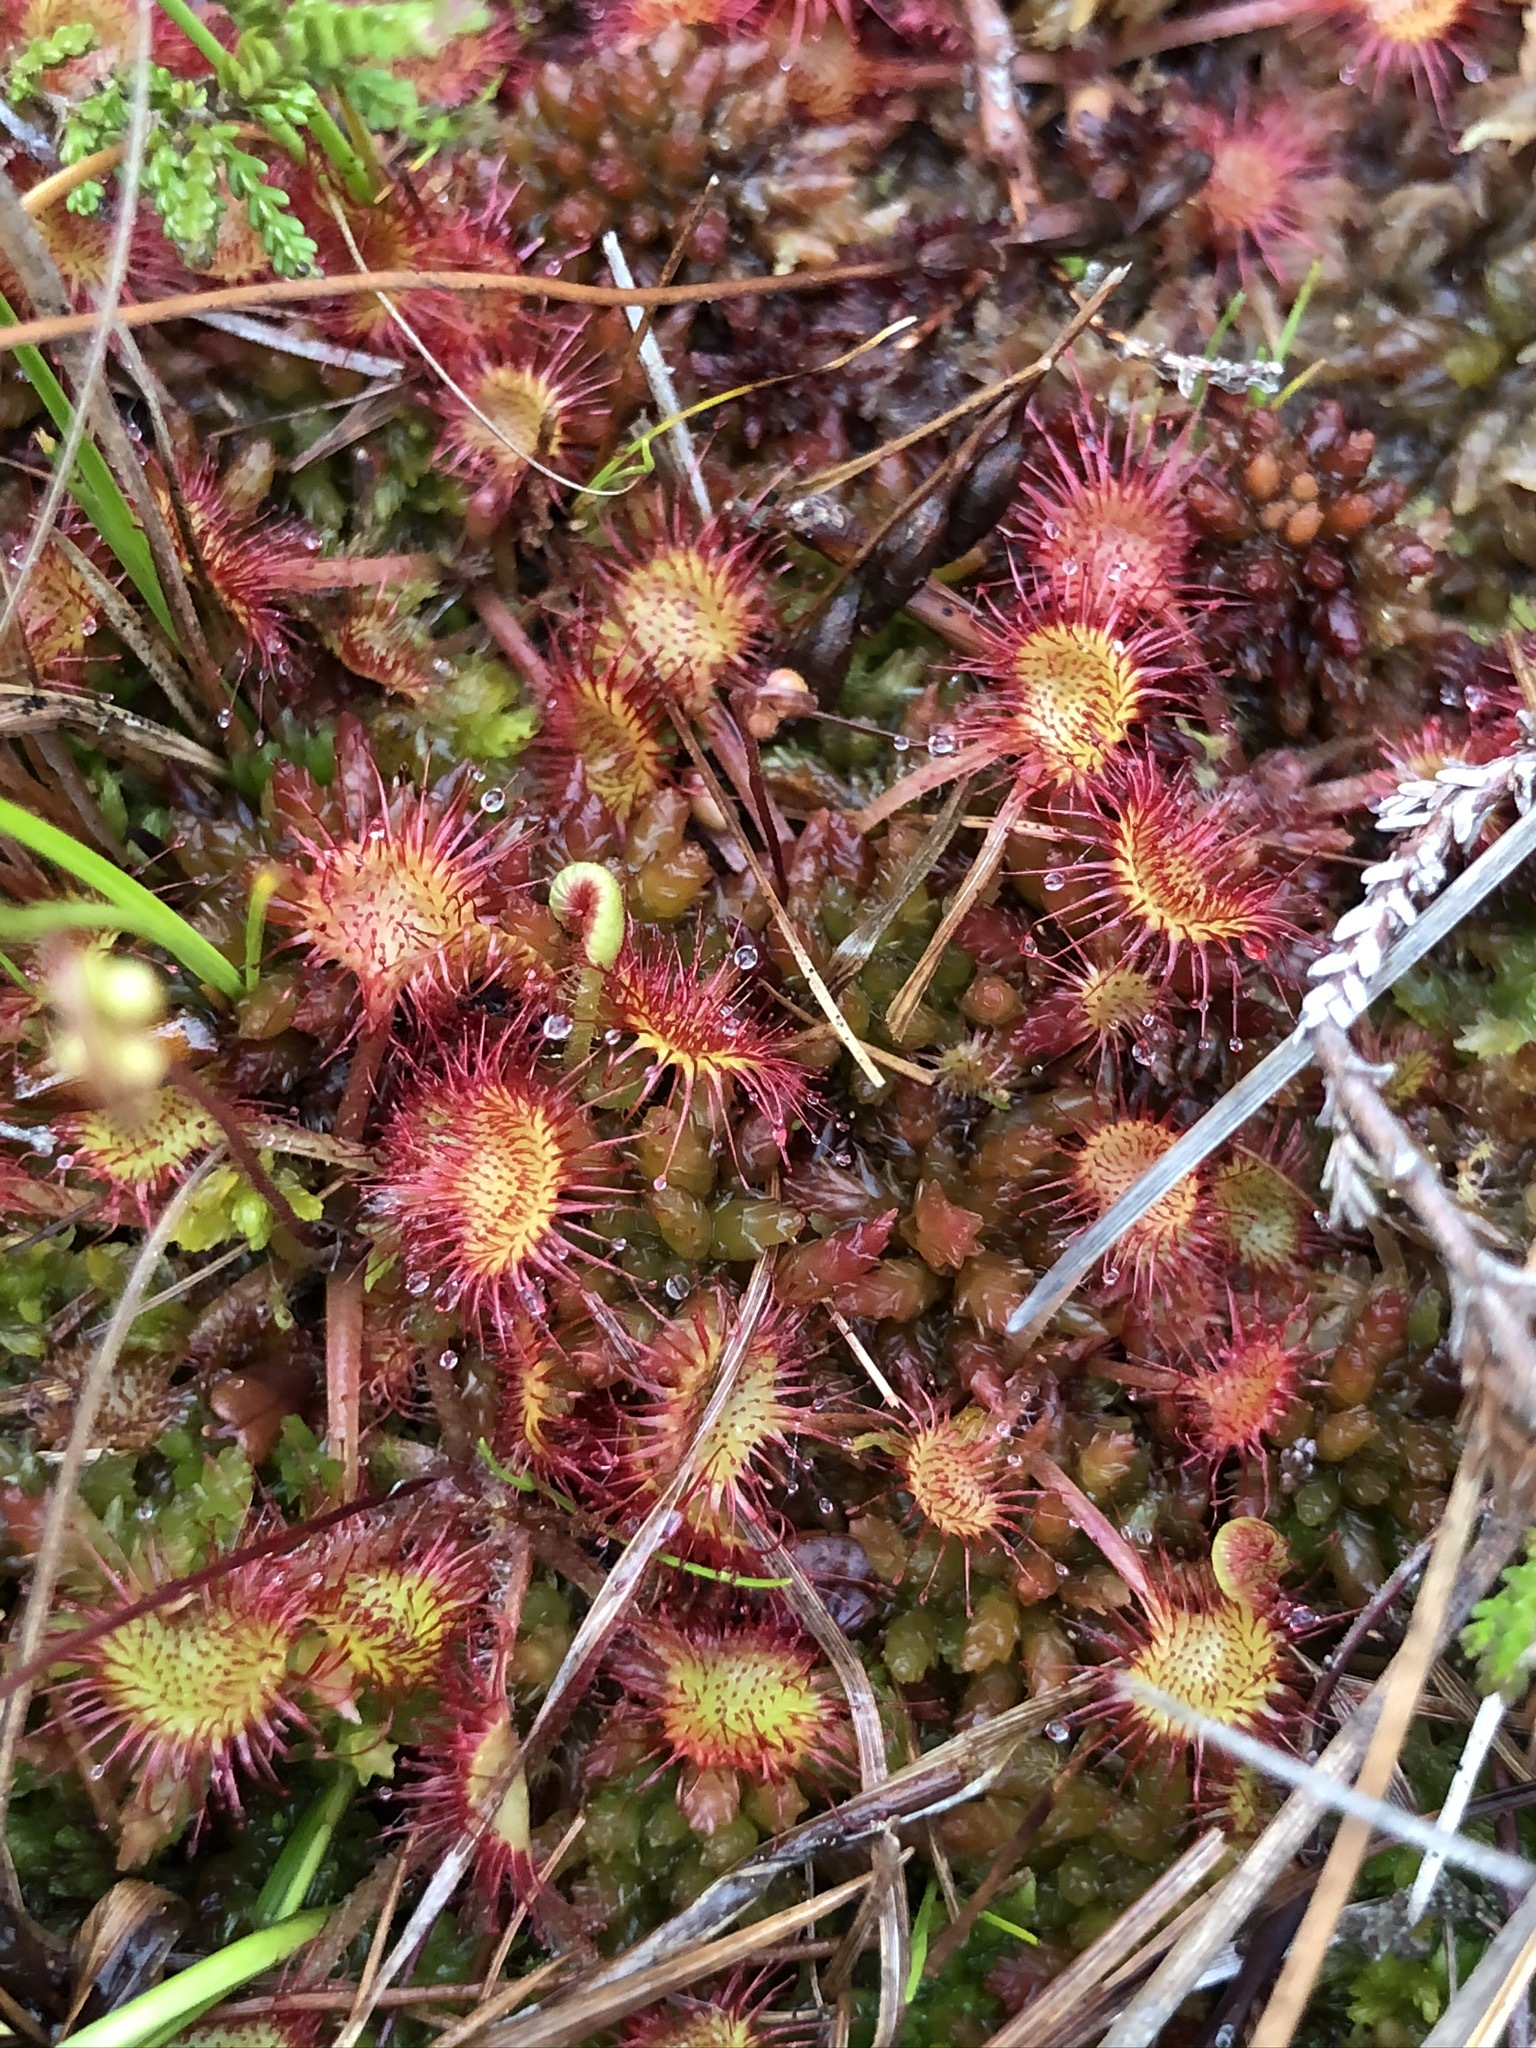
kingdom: Plantae
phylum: Tracheophyta
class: Magnoliopsida
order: Caryophyllales
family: Droseraceae
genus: Drosera
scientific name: Drosera rotundifolia
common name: Round-leaved sundew
